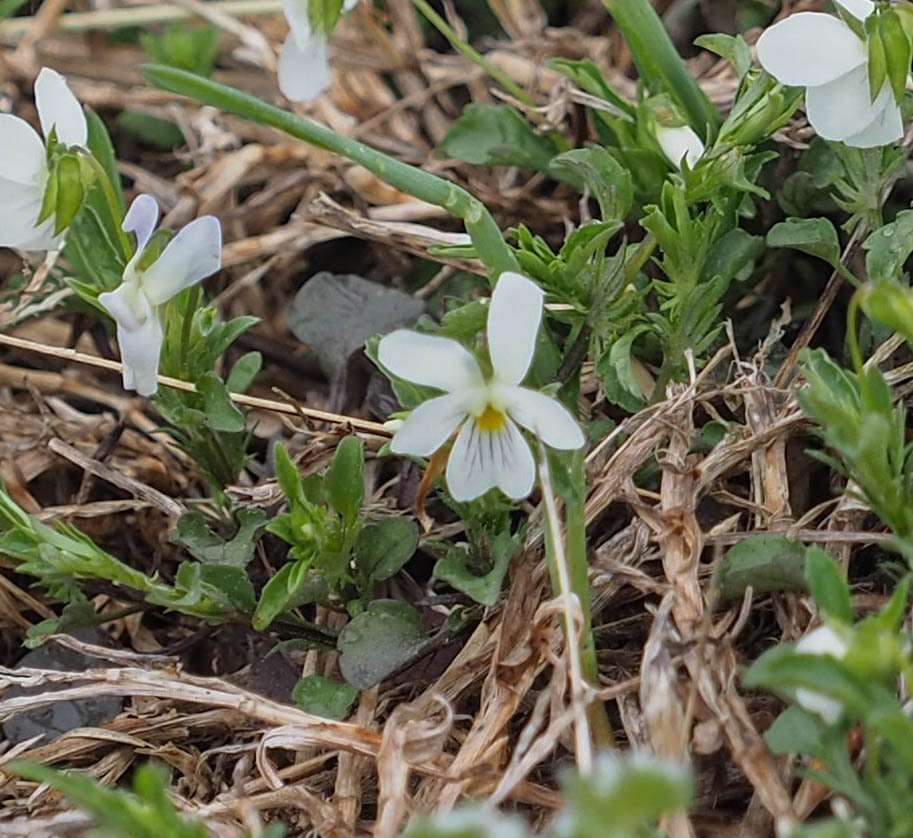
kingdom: Plantae
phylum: Tracheophyta
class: Magnoliopsida
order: Malpighiales
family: Violaceae
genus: Viola
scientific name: Viola rafinesquei
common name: American field pansy
